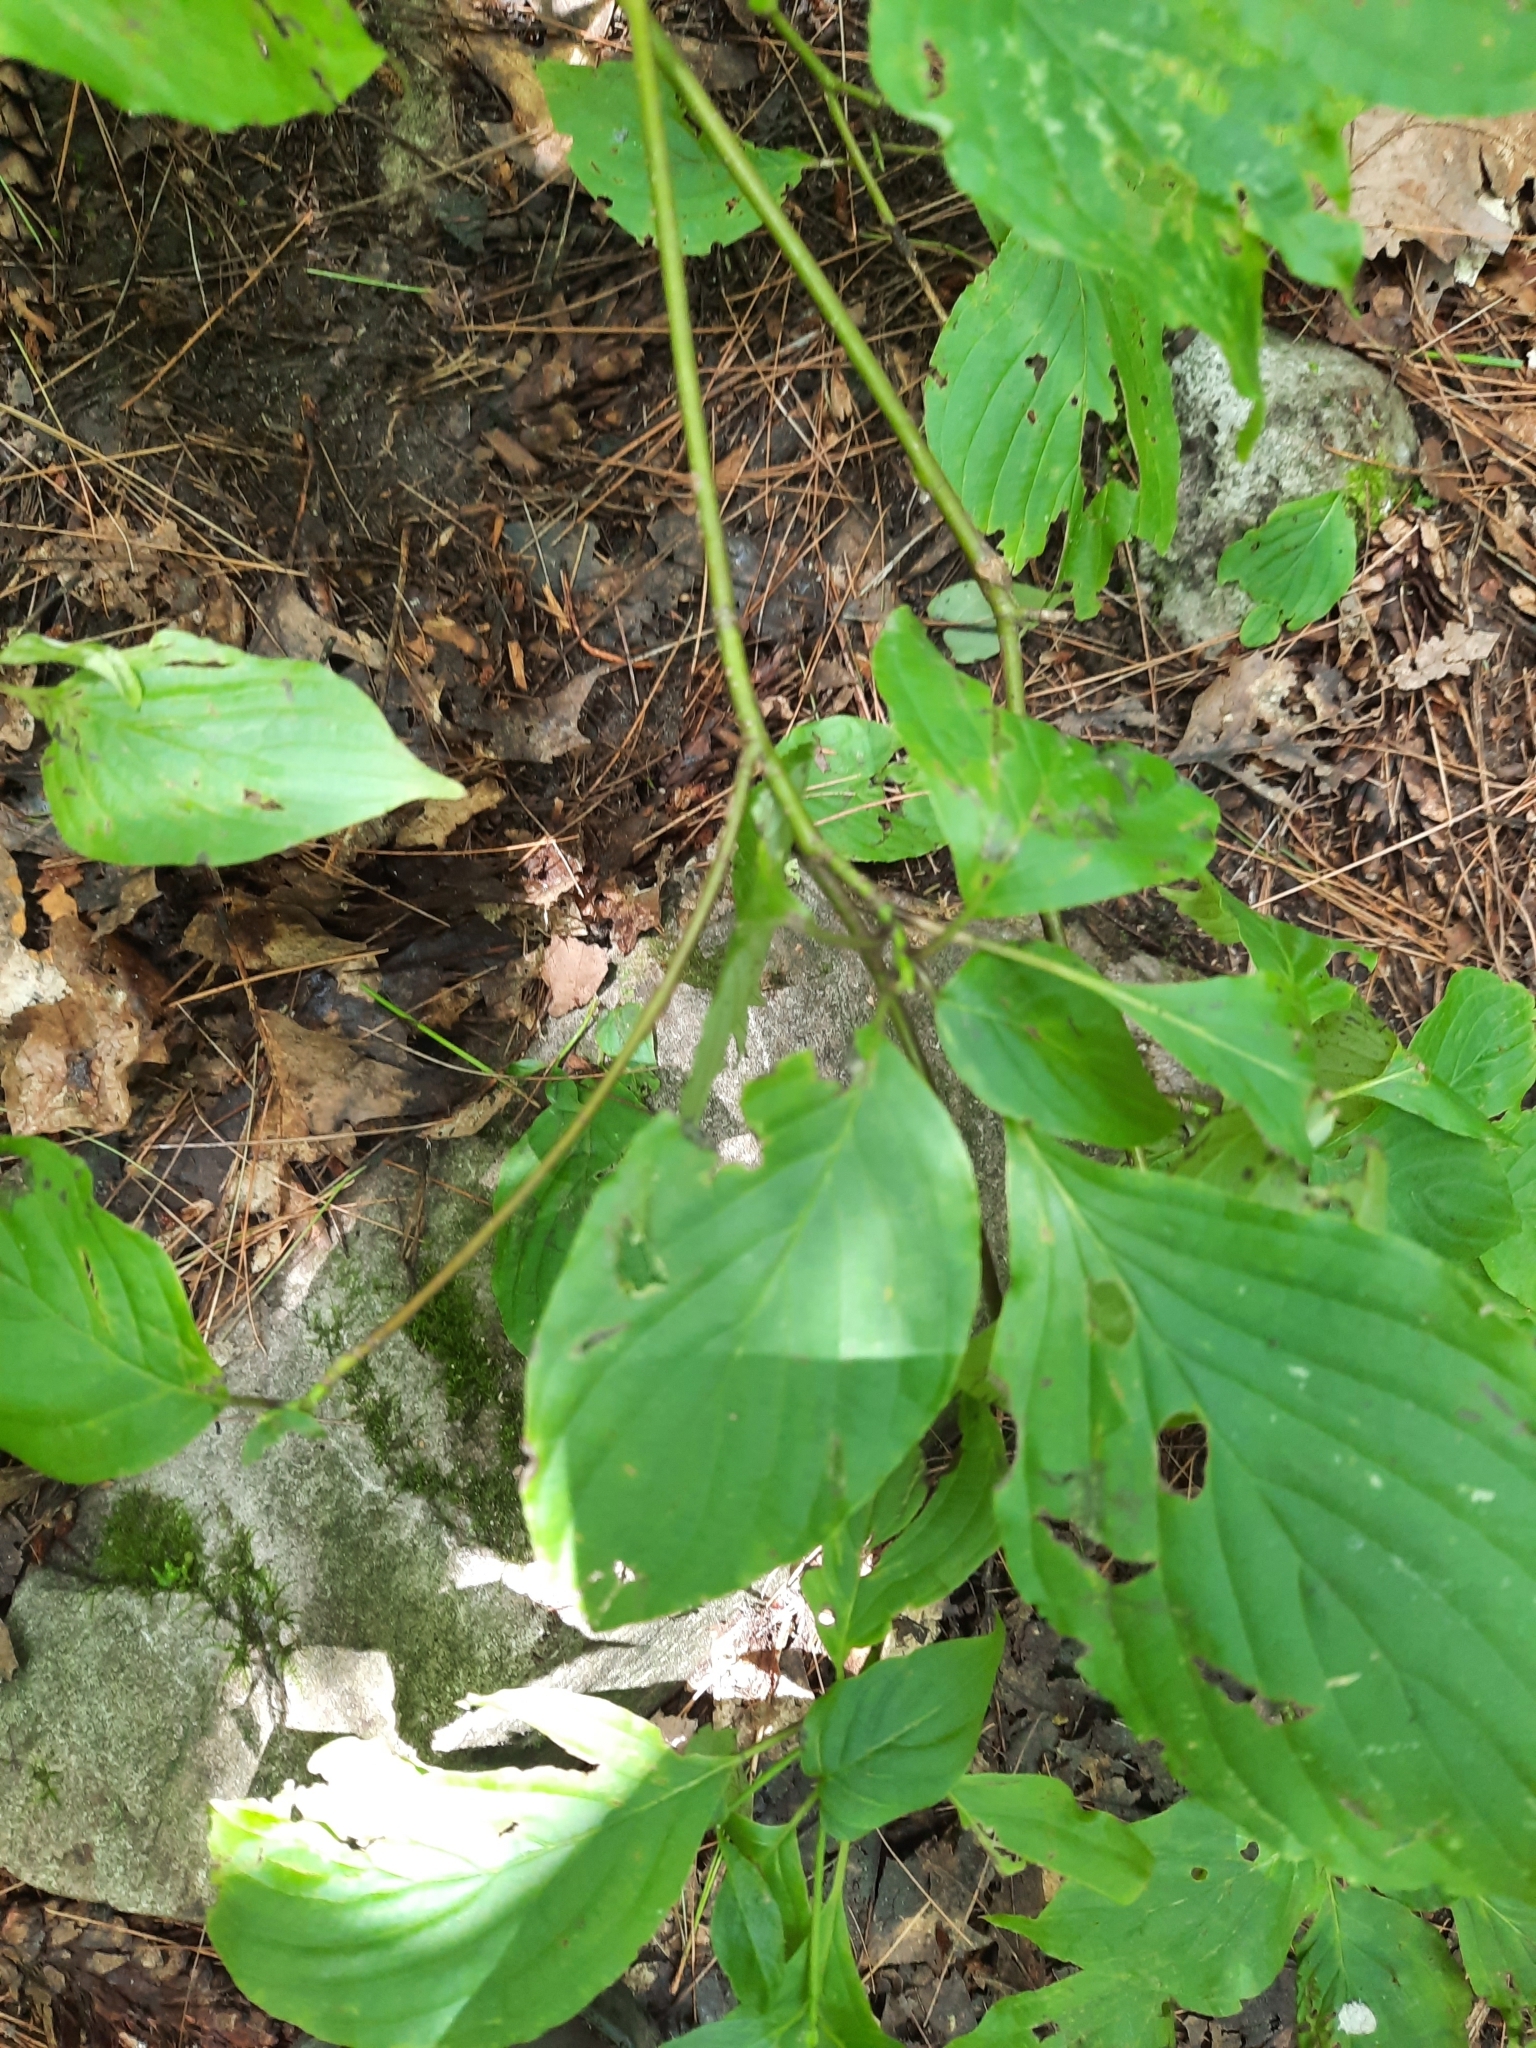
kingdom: Plantae
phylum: Tracheophyta
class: Magnoliopsida
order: Cornales
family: Cornaceae
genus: Cornus
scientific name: Cornus alternifolia
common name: Pagoda dogwood
